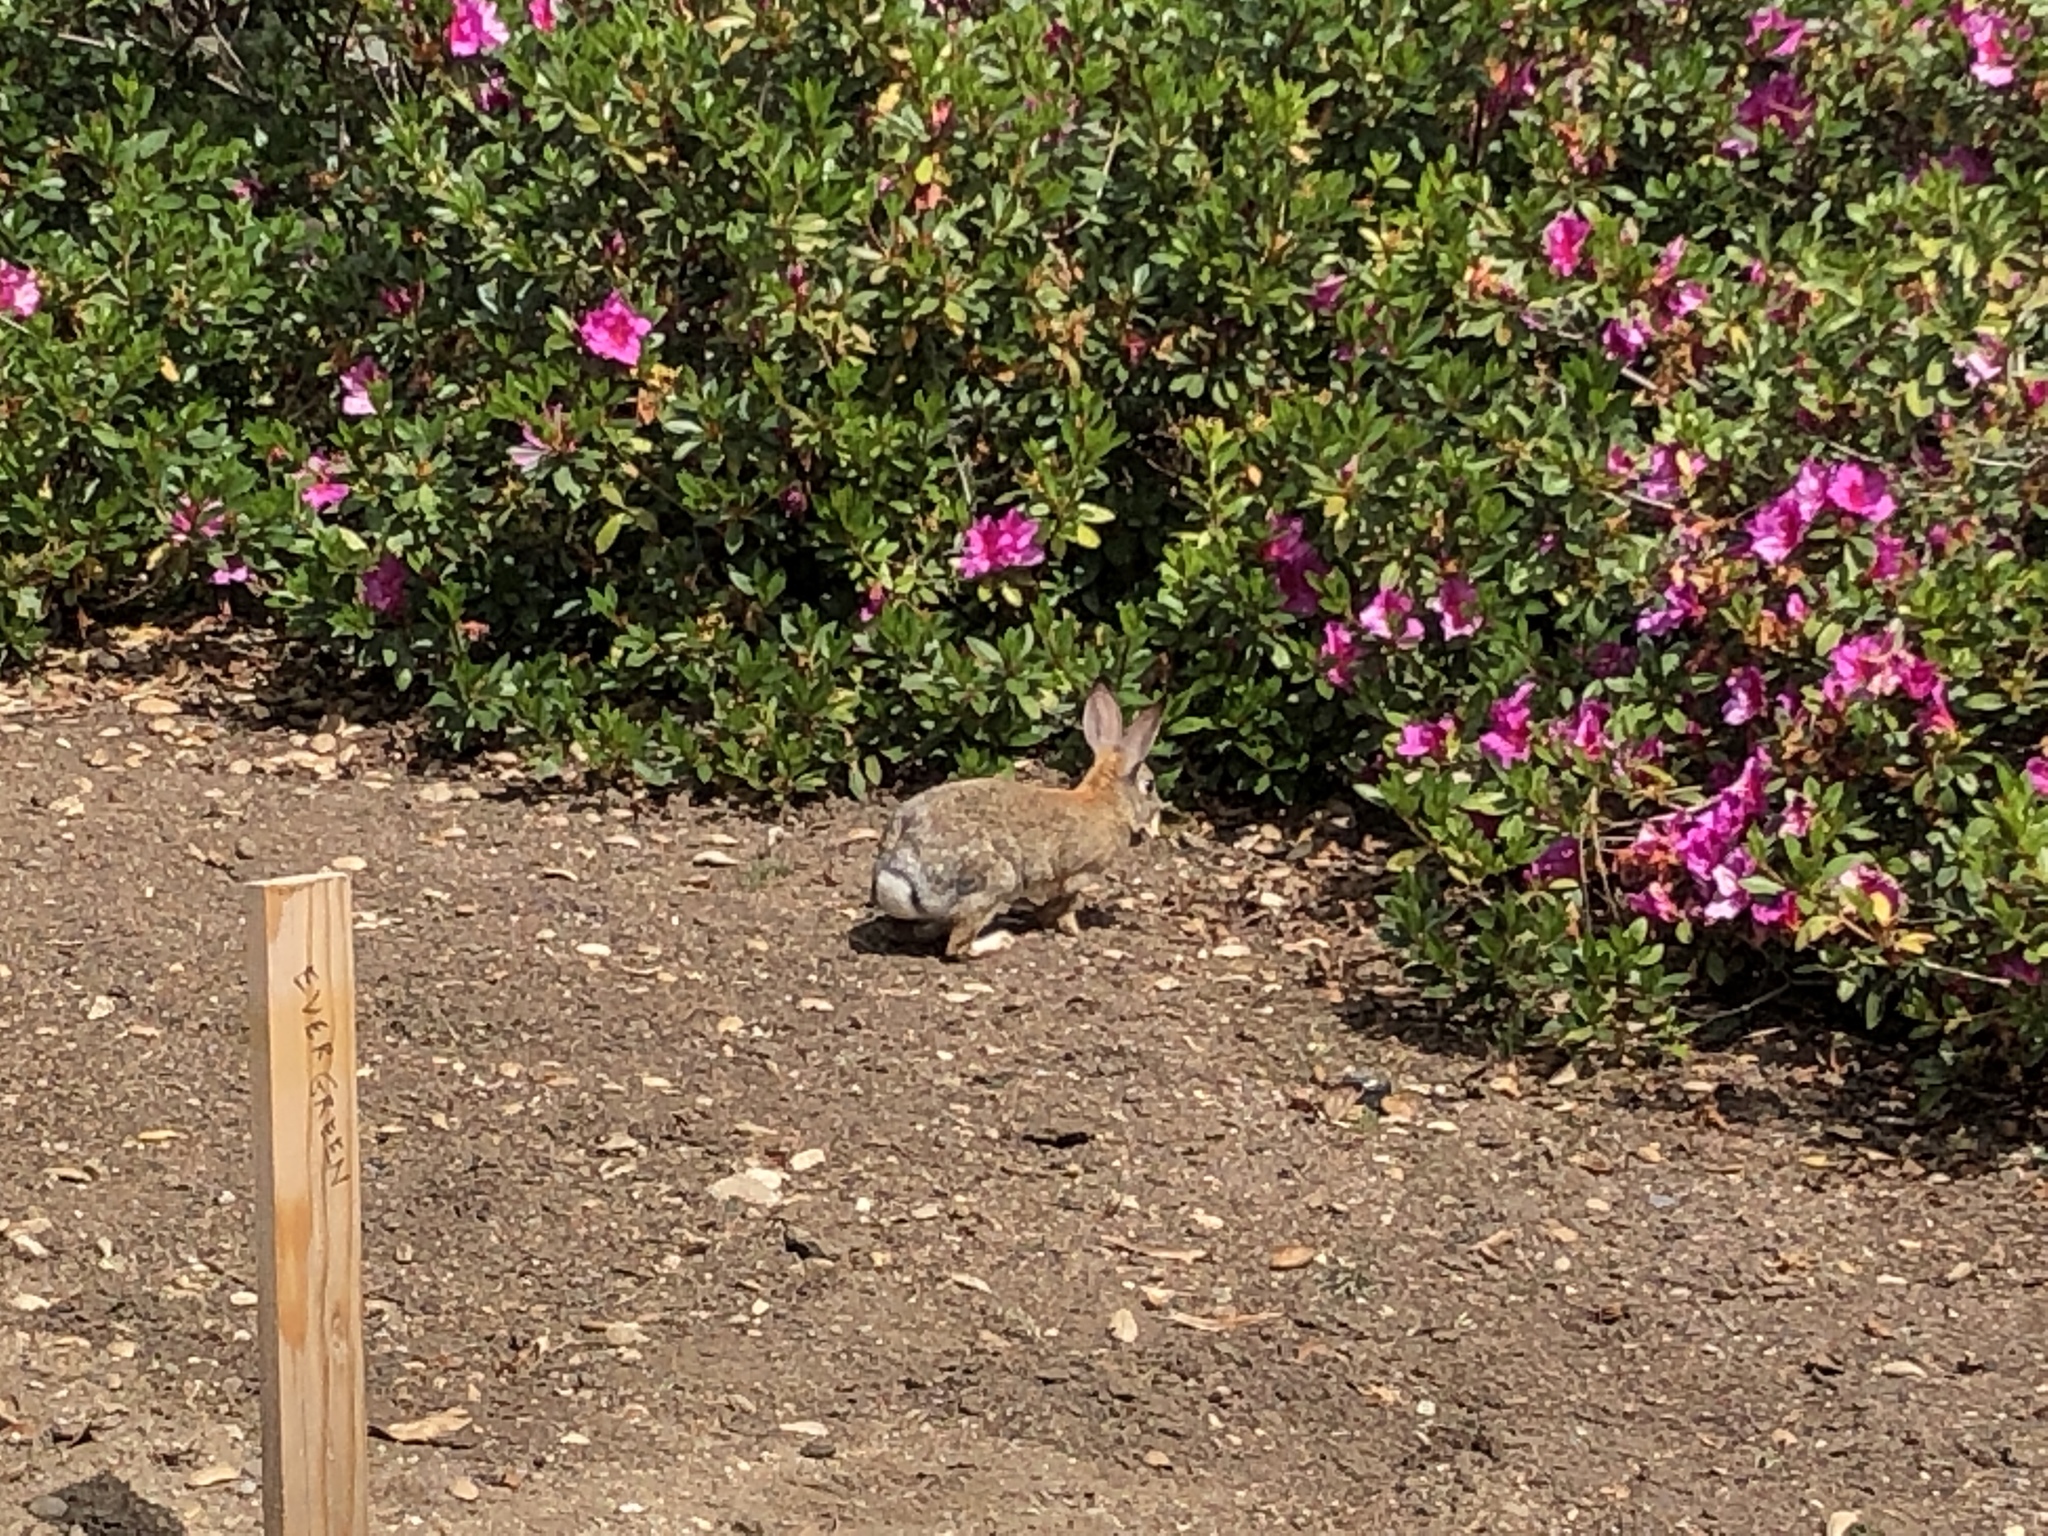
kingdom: Animalia
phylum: Chordata
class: Mammalia
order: Lagomorpha
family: Leporidae
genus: Sylvilagus
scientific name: Sylvilagus audubonii
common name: Desert cottontail
